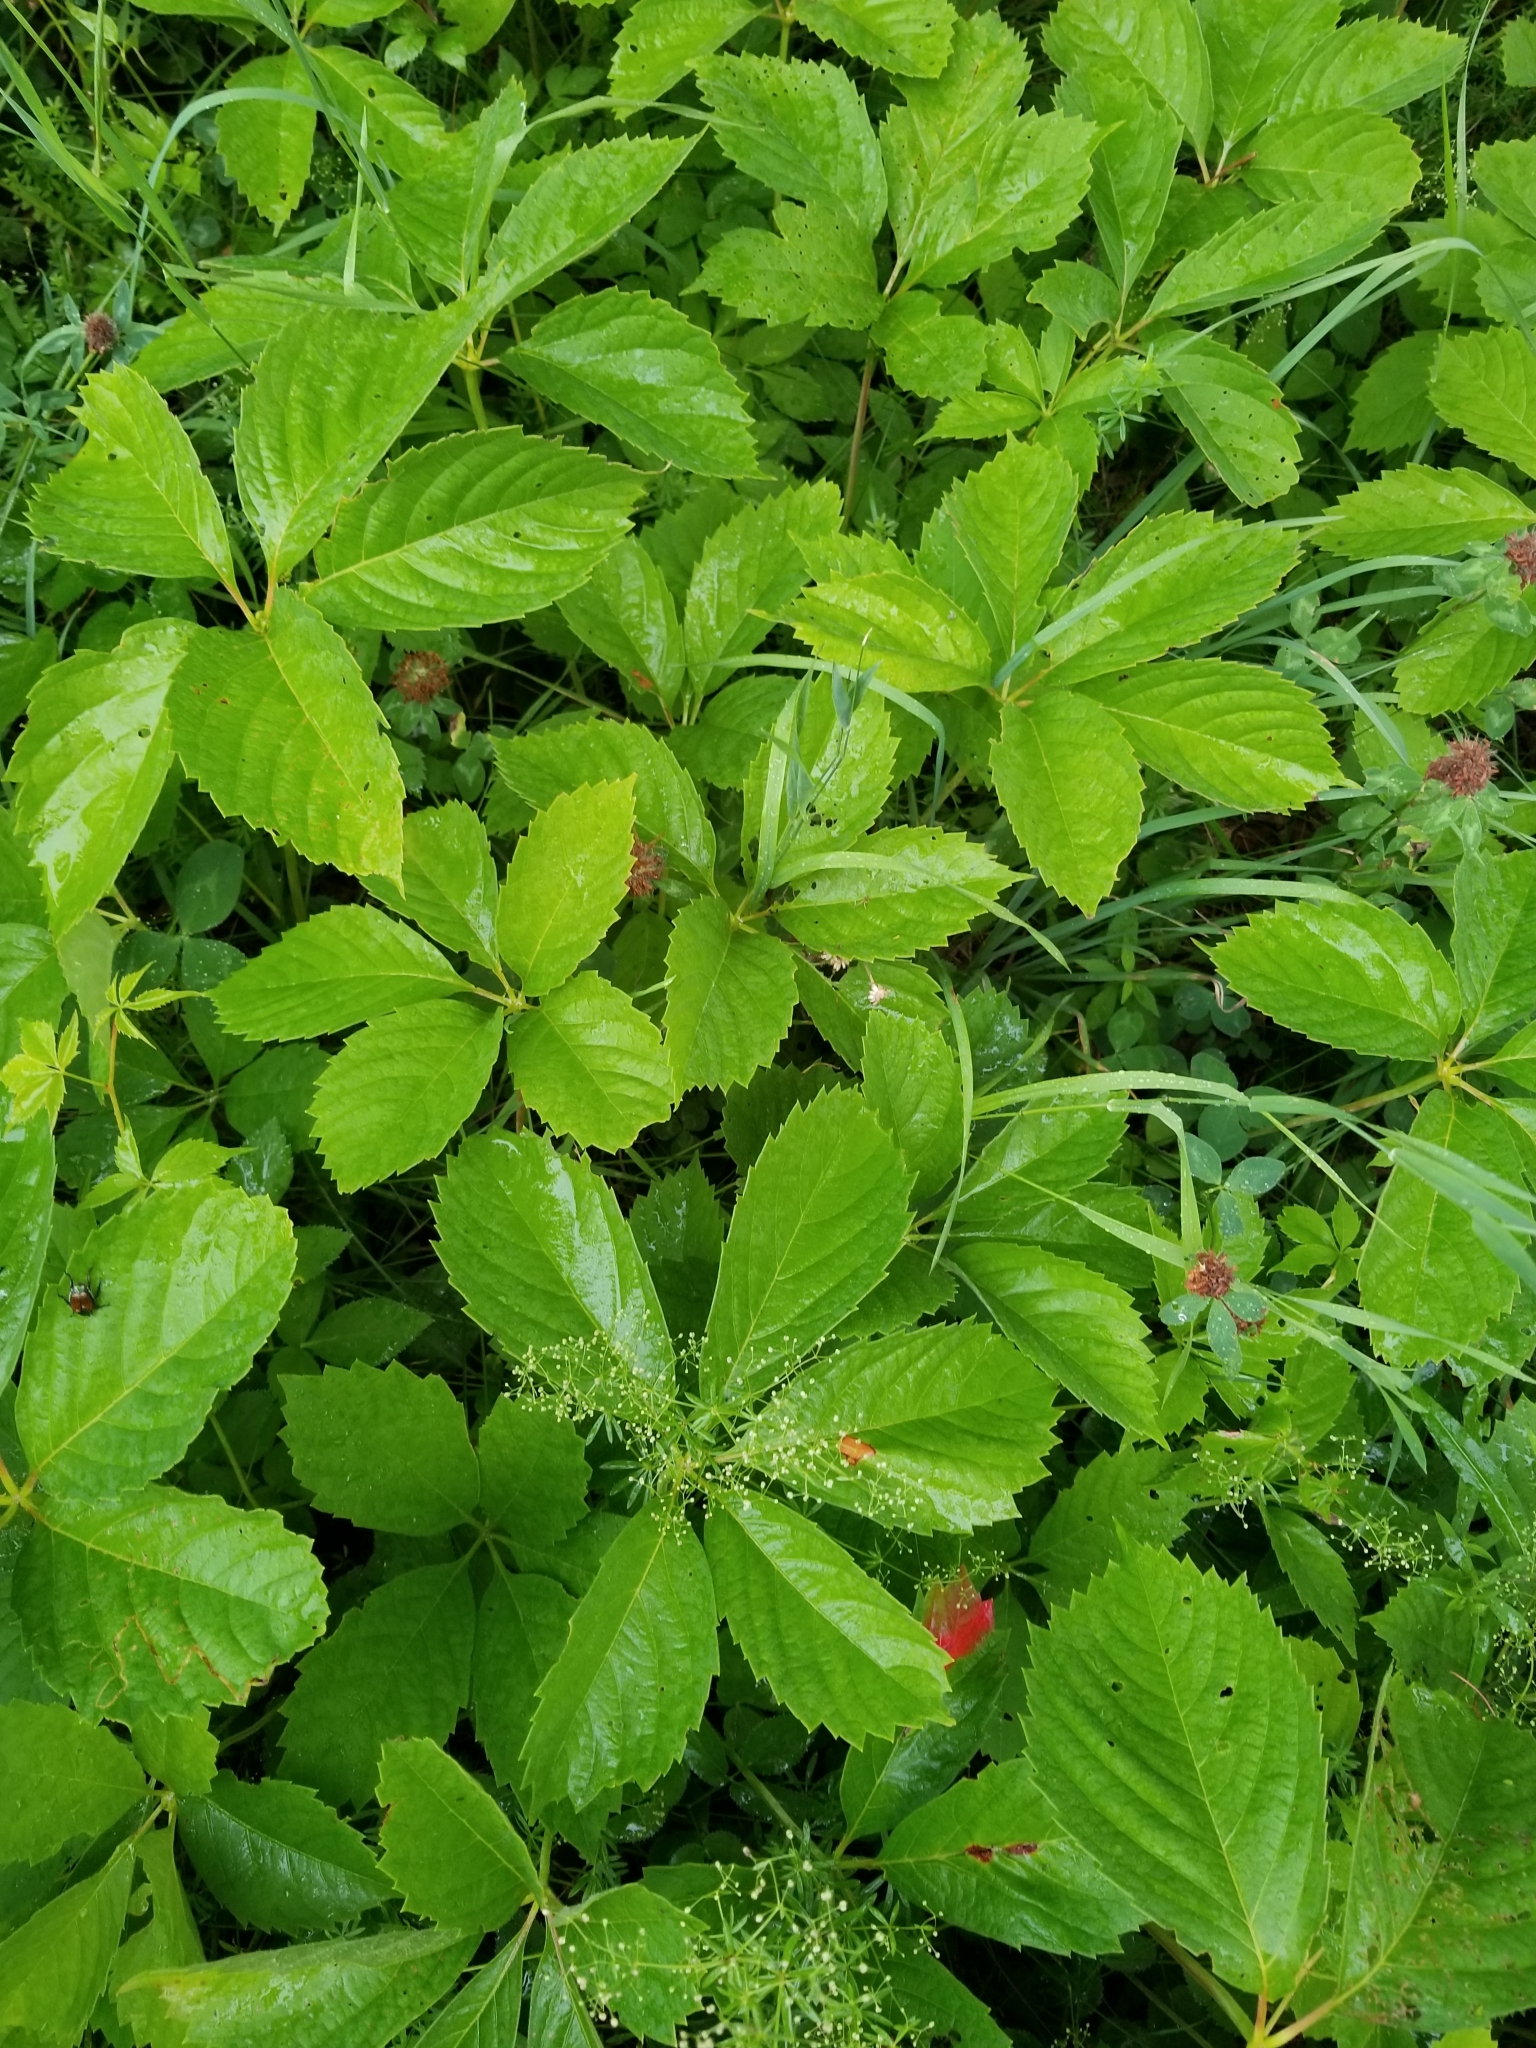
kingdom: Plantae
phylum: Tracheophyta
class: Magnoliopsida
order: Vitales
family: Vitaceae
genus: Parthenocissus
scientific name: Parthenocissus quinquefolia
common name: Virginia-creeper
